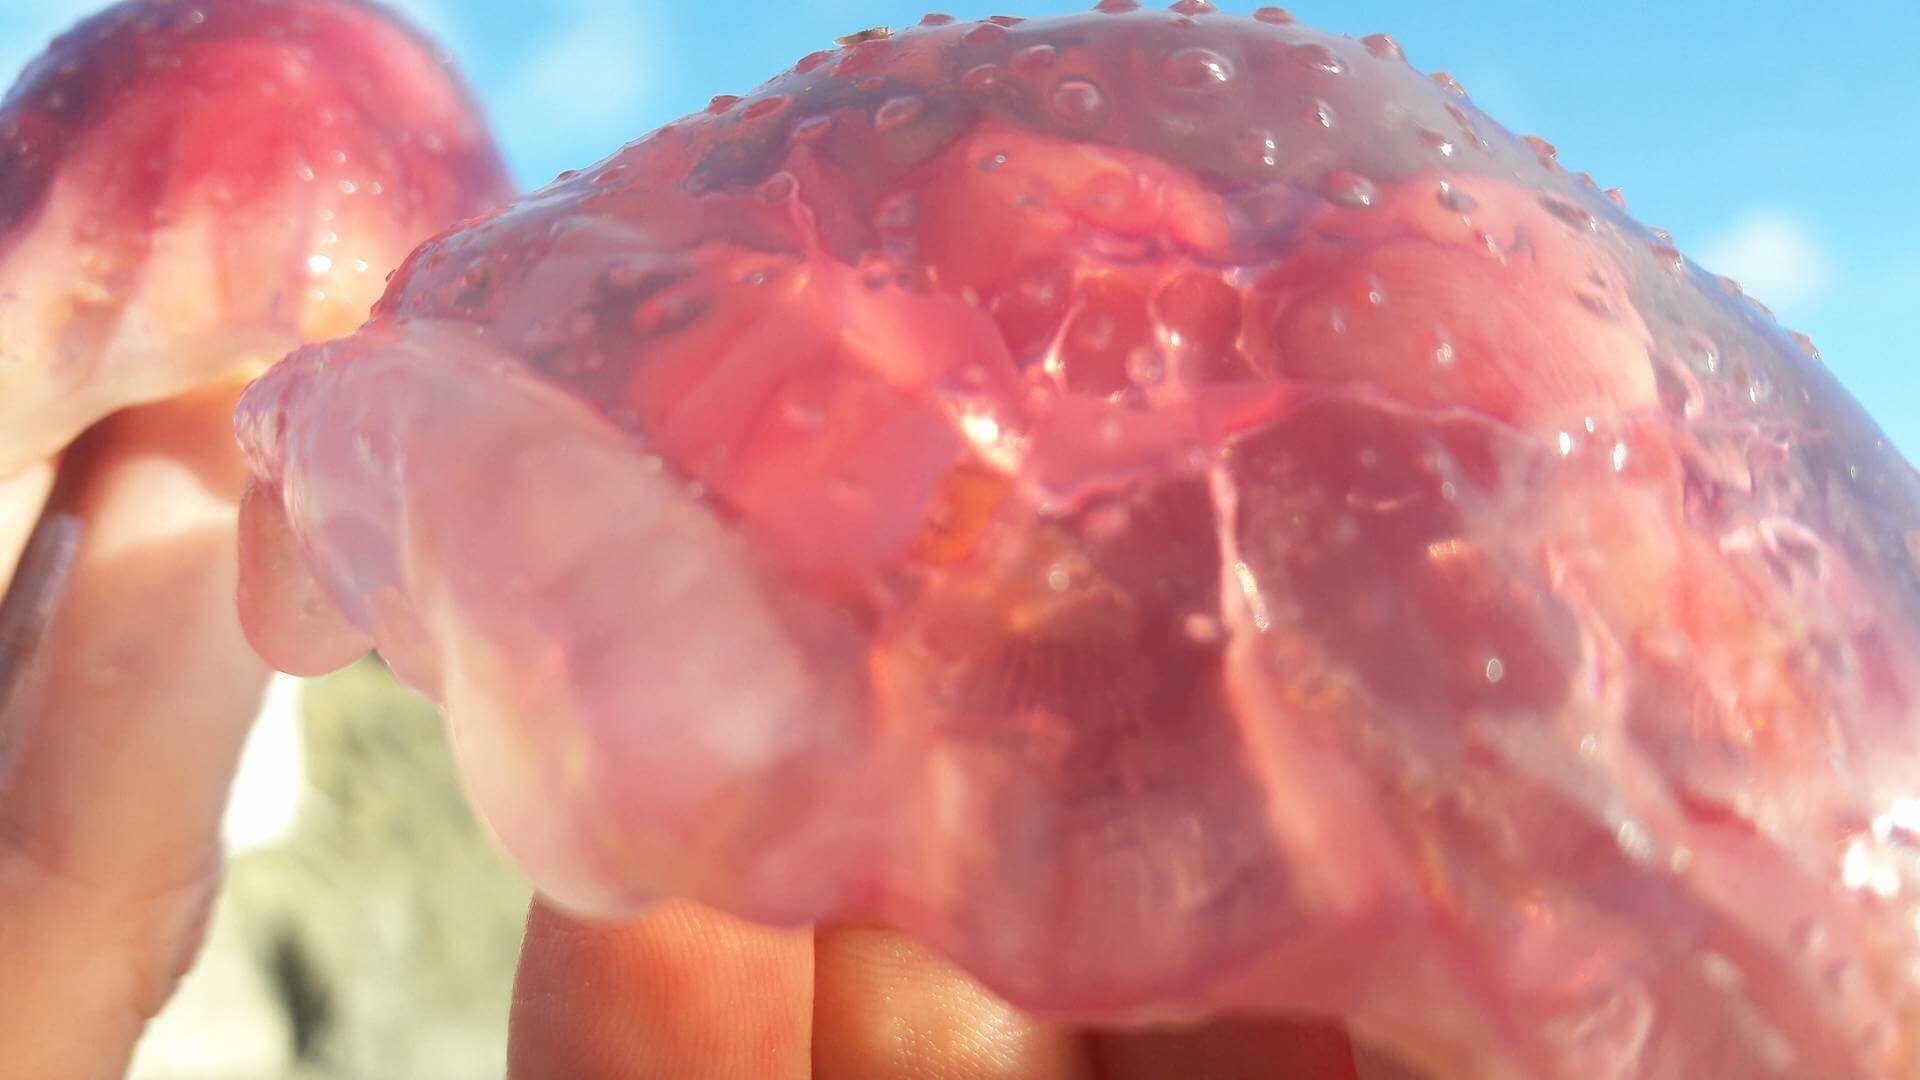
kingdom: Animalia
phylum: Cnidaria
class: Scyphozoa
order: Semaeostomeae
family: Cyaneidae
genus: Cyanea
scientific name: Cyanea
